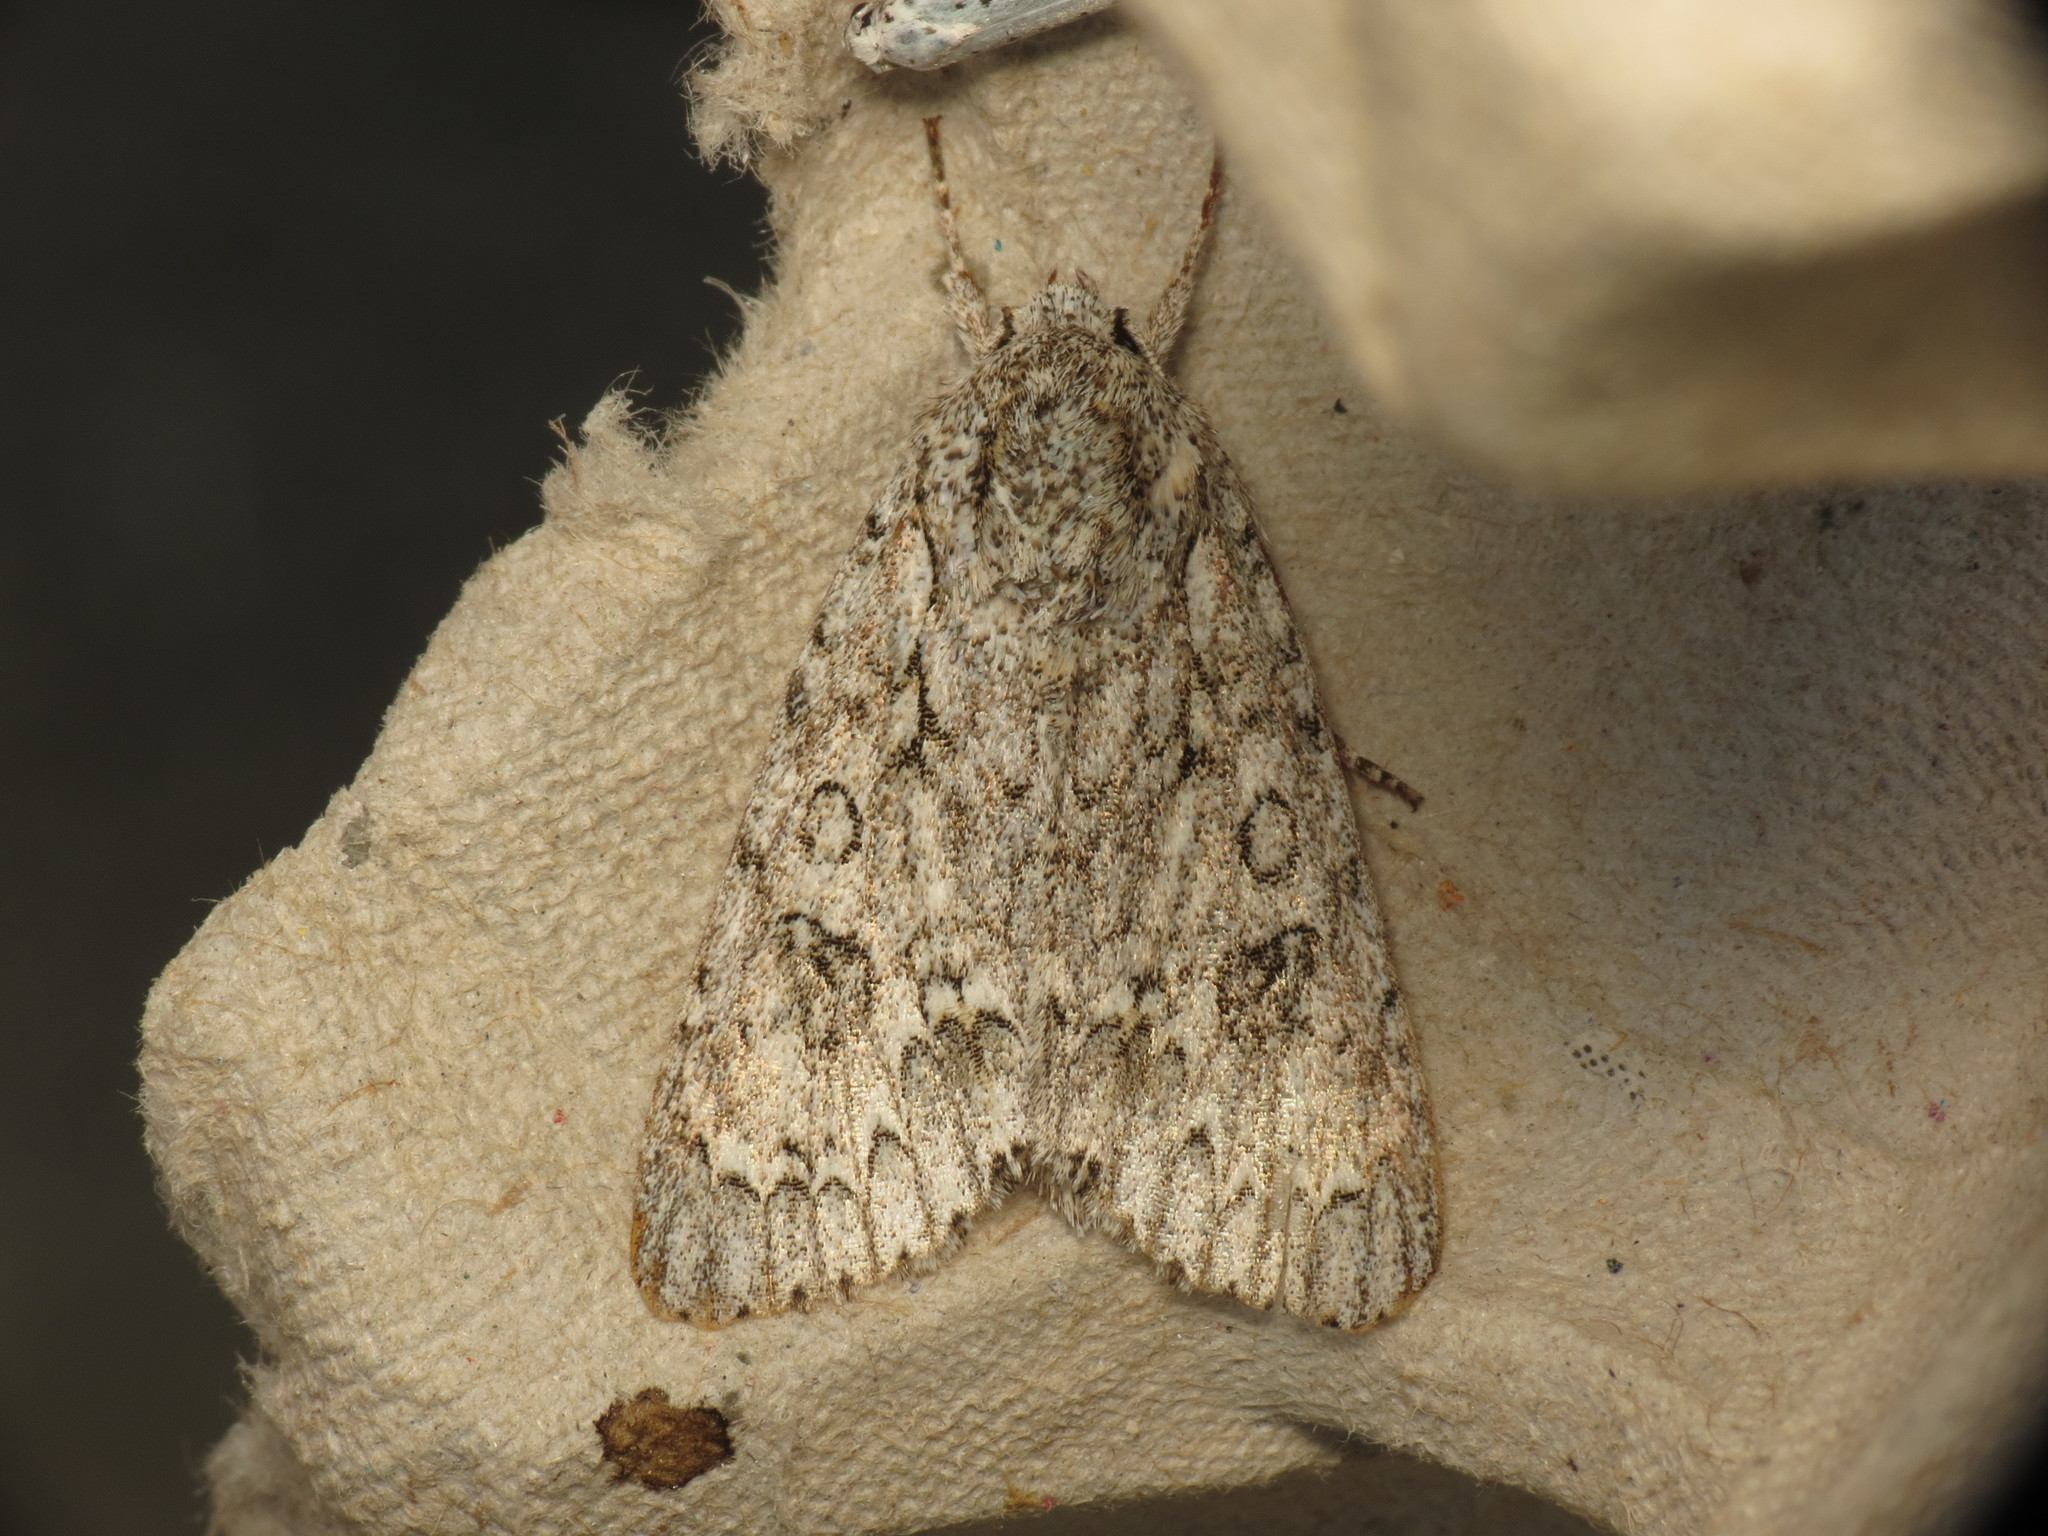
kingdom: Animalia
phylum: Arthropoda
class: Insecta
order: Lepidoptera
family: Noctuidae
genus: Acronicta
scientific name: Acronicta aceris
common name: Sycamore
